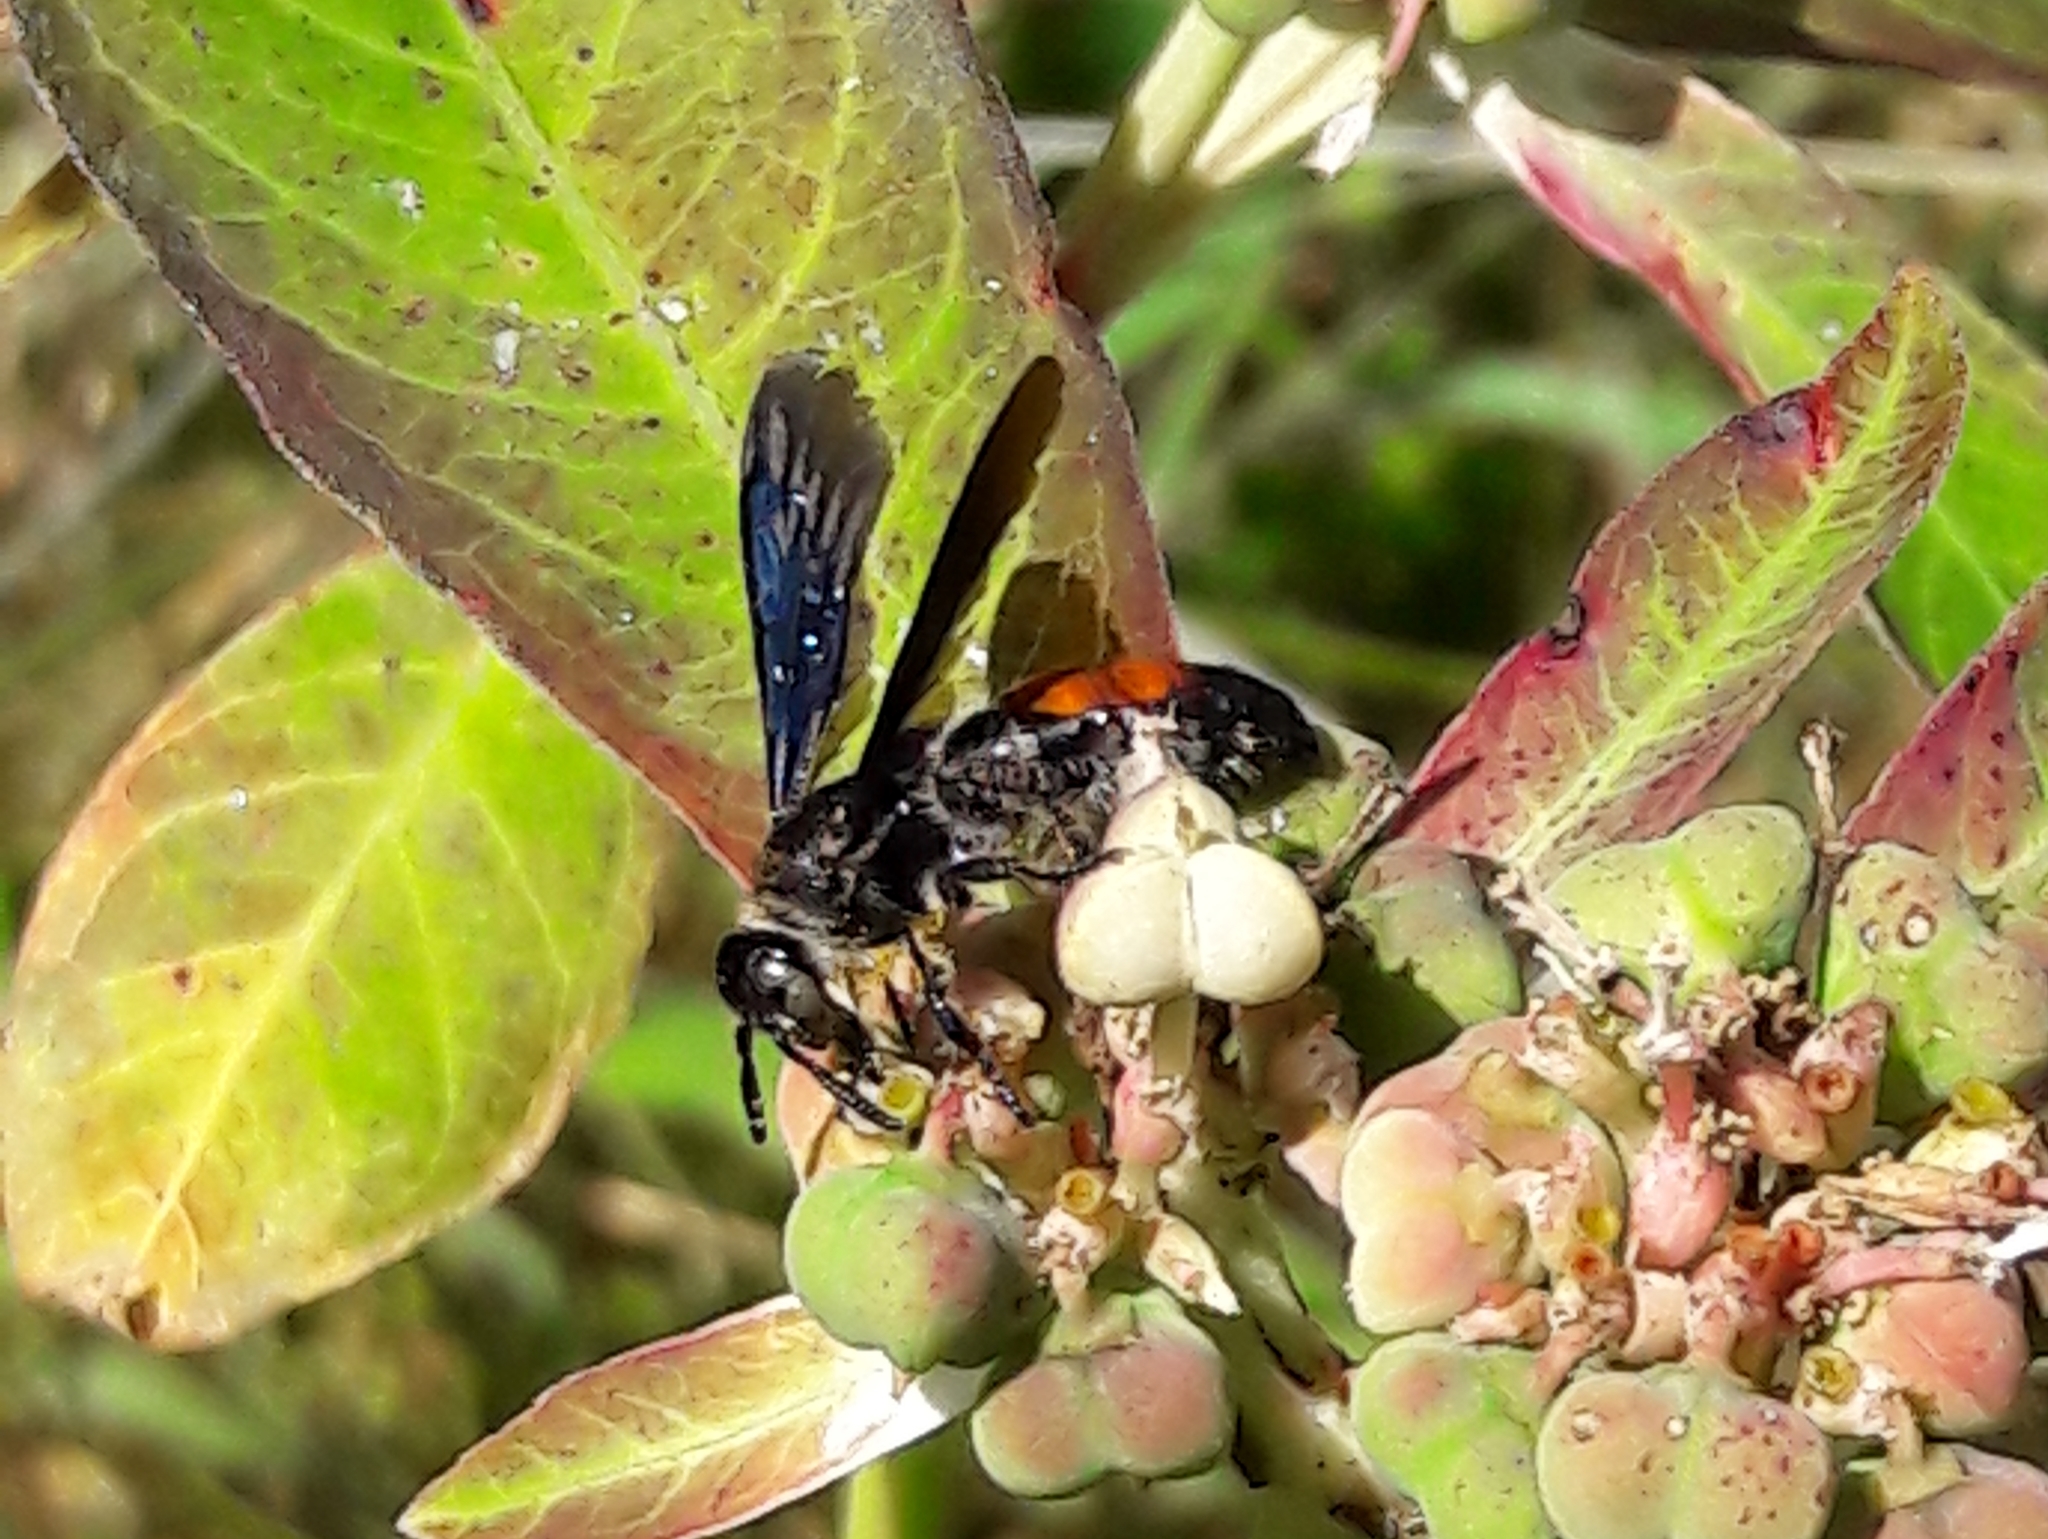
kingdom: Animalia
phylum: Arthropoda
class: Insecta
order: Hymenoptera
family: Scoliidae
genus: Dielis
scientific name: Dielis dorsata
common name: Scoliid wasp
